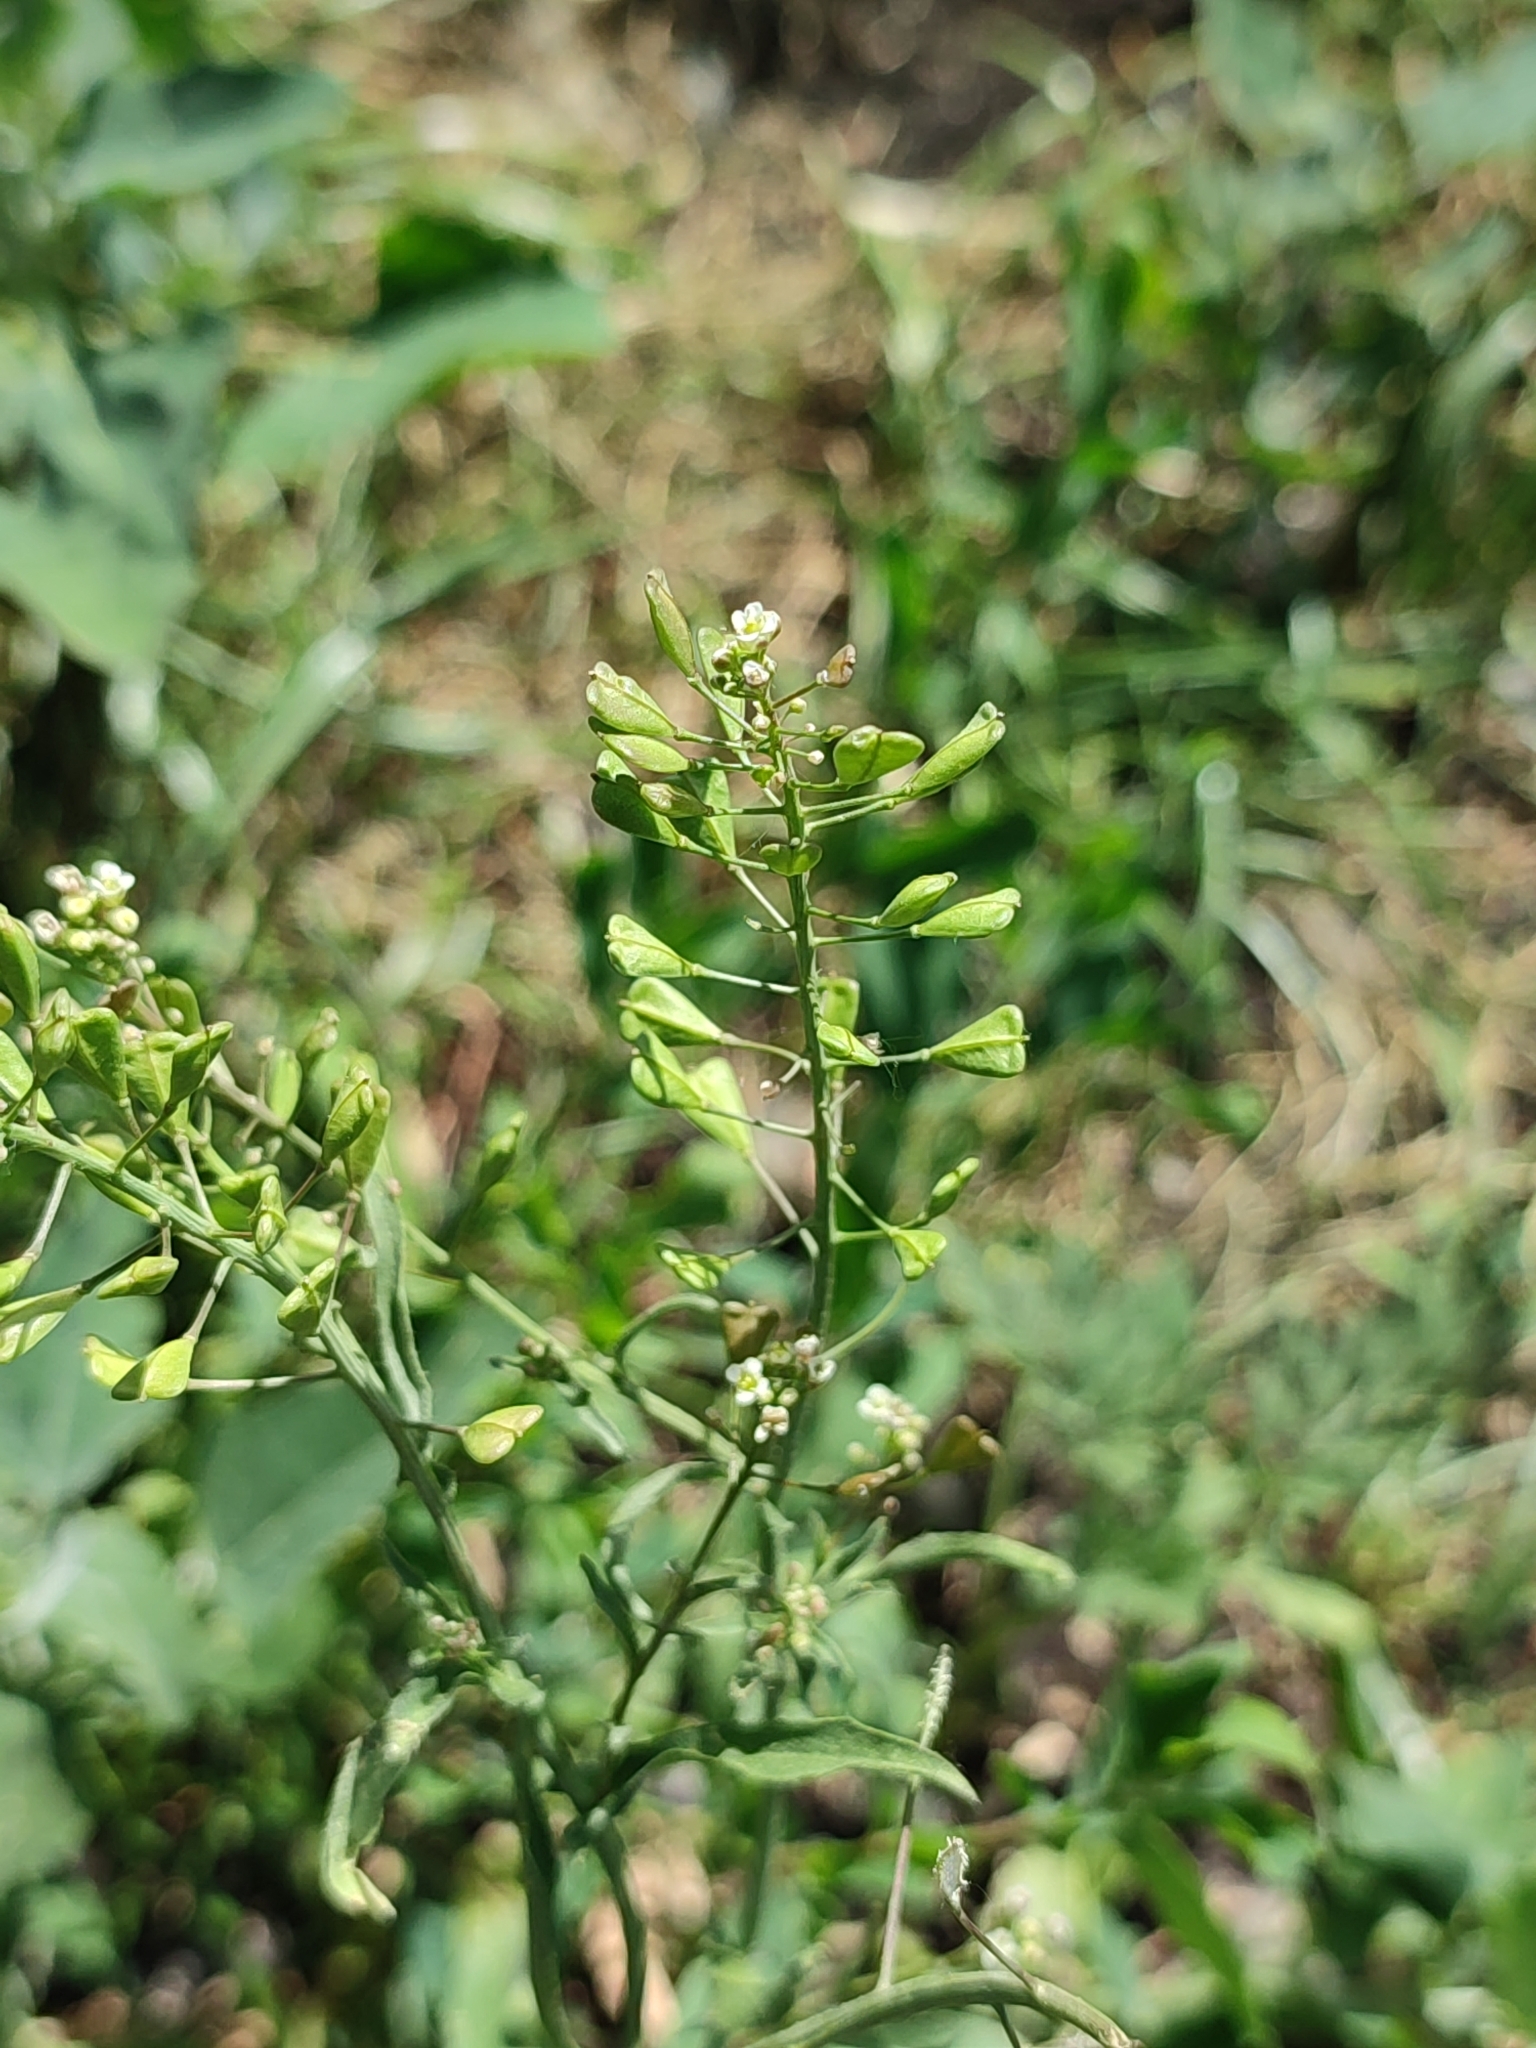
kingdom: Plantae
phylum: Tracheophyta
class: Magnoliopsida
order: Brassicales
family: Brassicaceae
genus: Capsella
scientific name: Capsella bursa-pastoris
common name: Shepherd's purse
